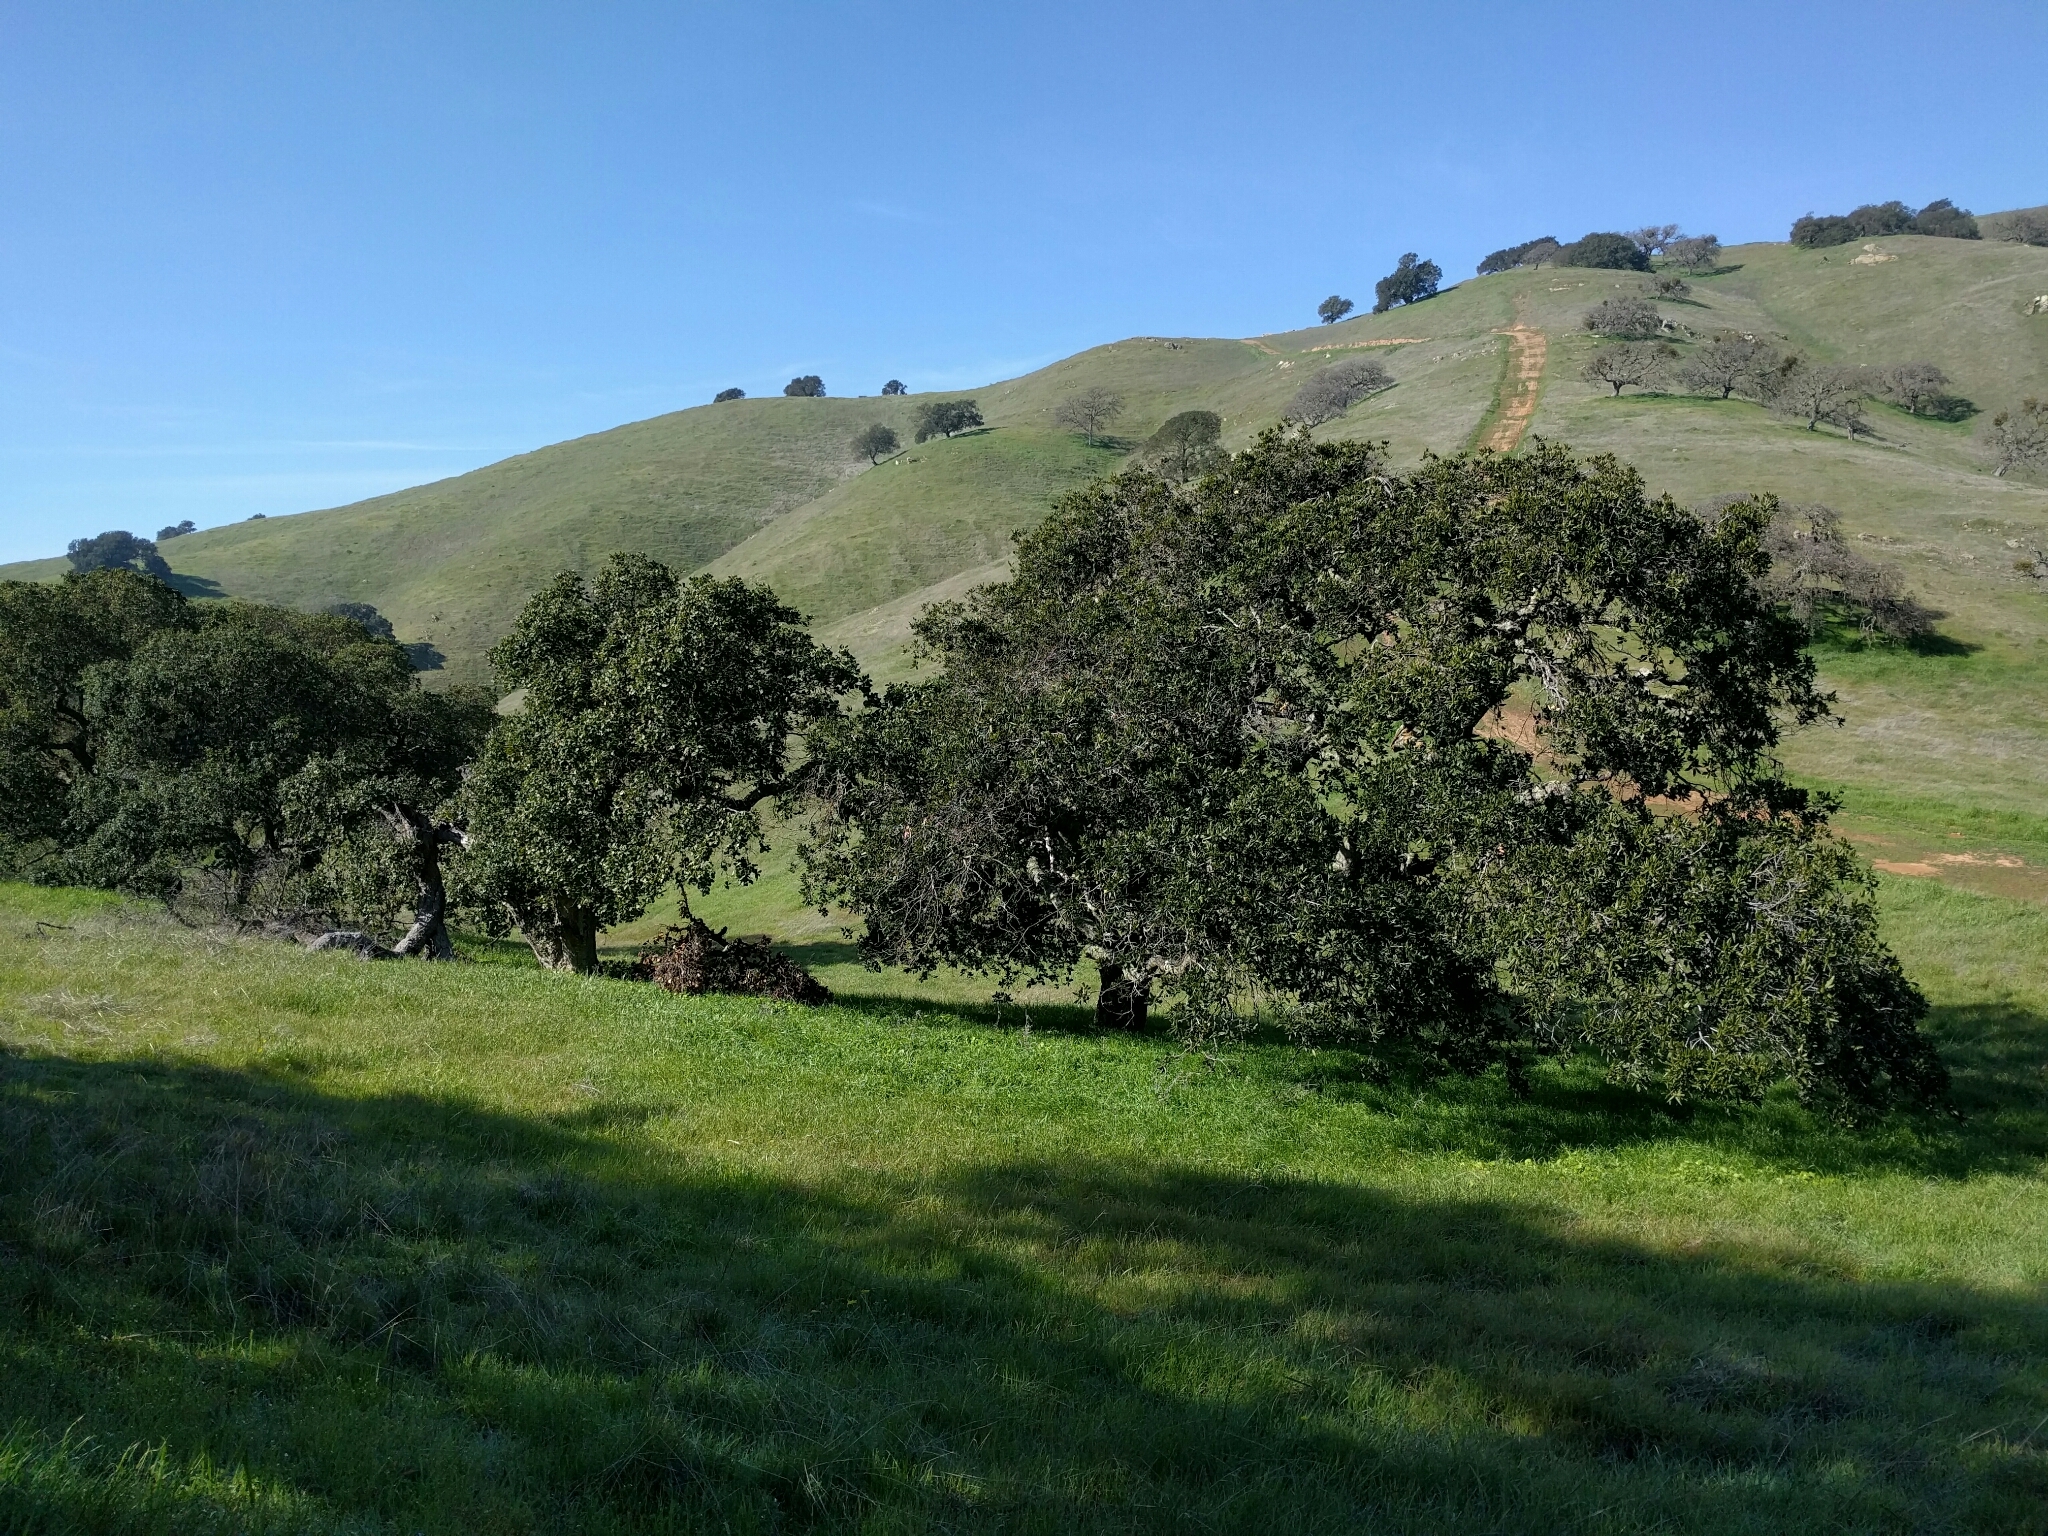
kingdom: Plantae
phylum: Tracheophyta
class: Magnoliopsida
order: Fagales
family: Fagaceae
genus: Quercus
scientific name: Quercus agrifolia
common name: California live oak
